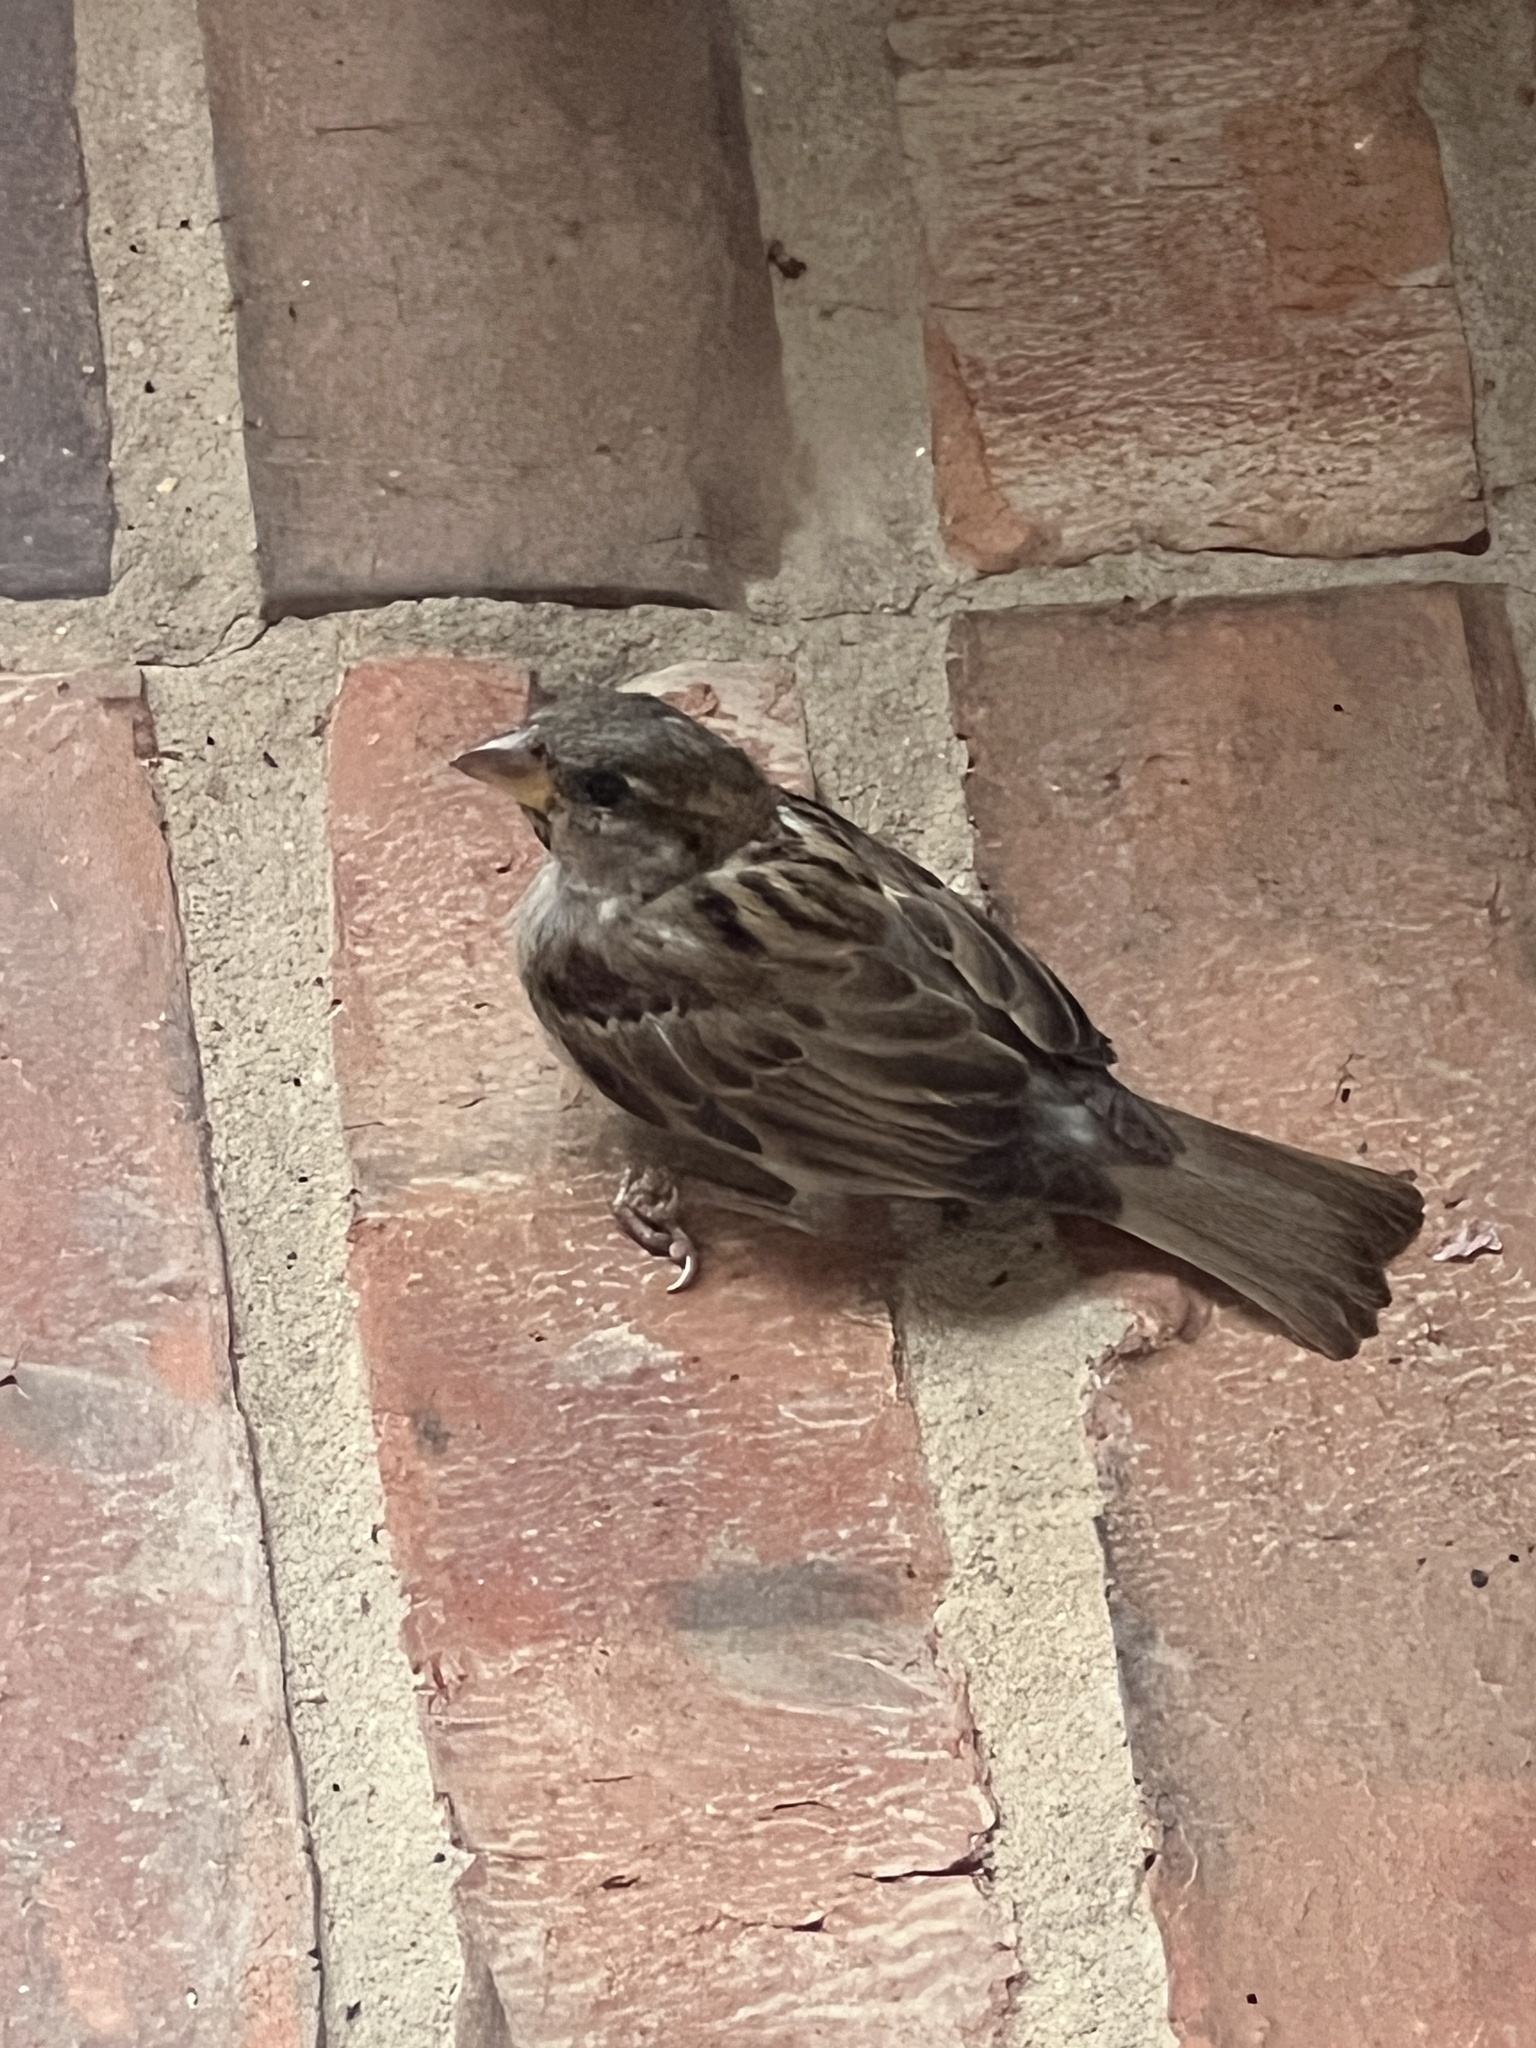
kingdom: Animalia
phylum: Chordata
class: Aves
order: Passeriformes
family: Passeridae
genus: Passer
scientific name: Passer domesticus
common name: House sparrow
